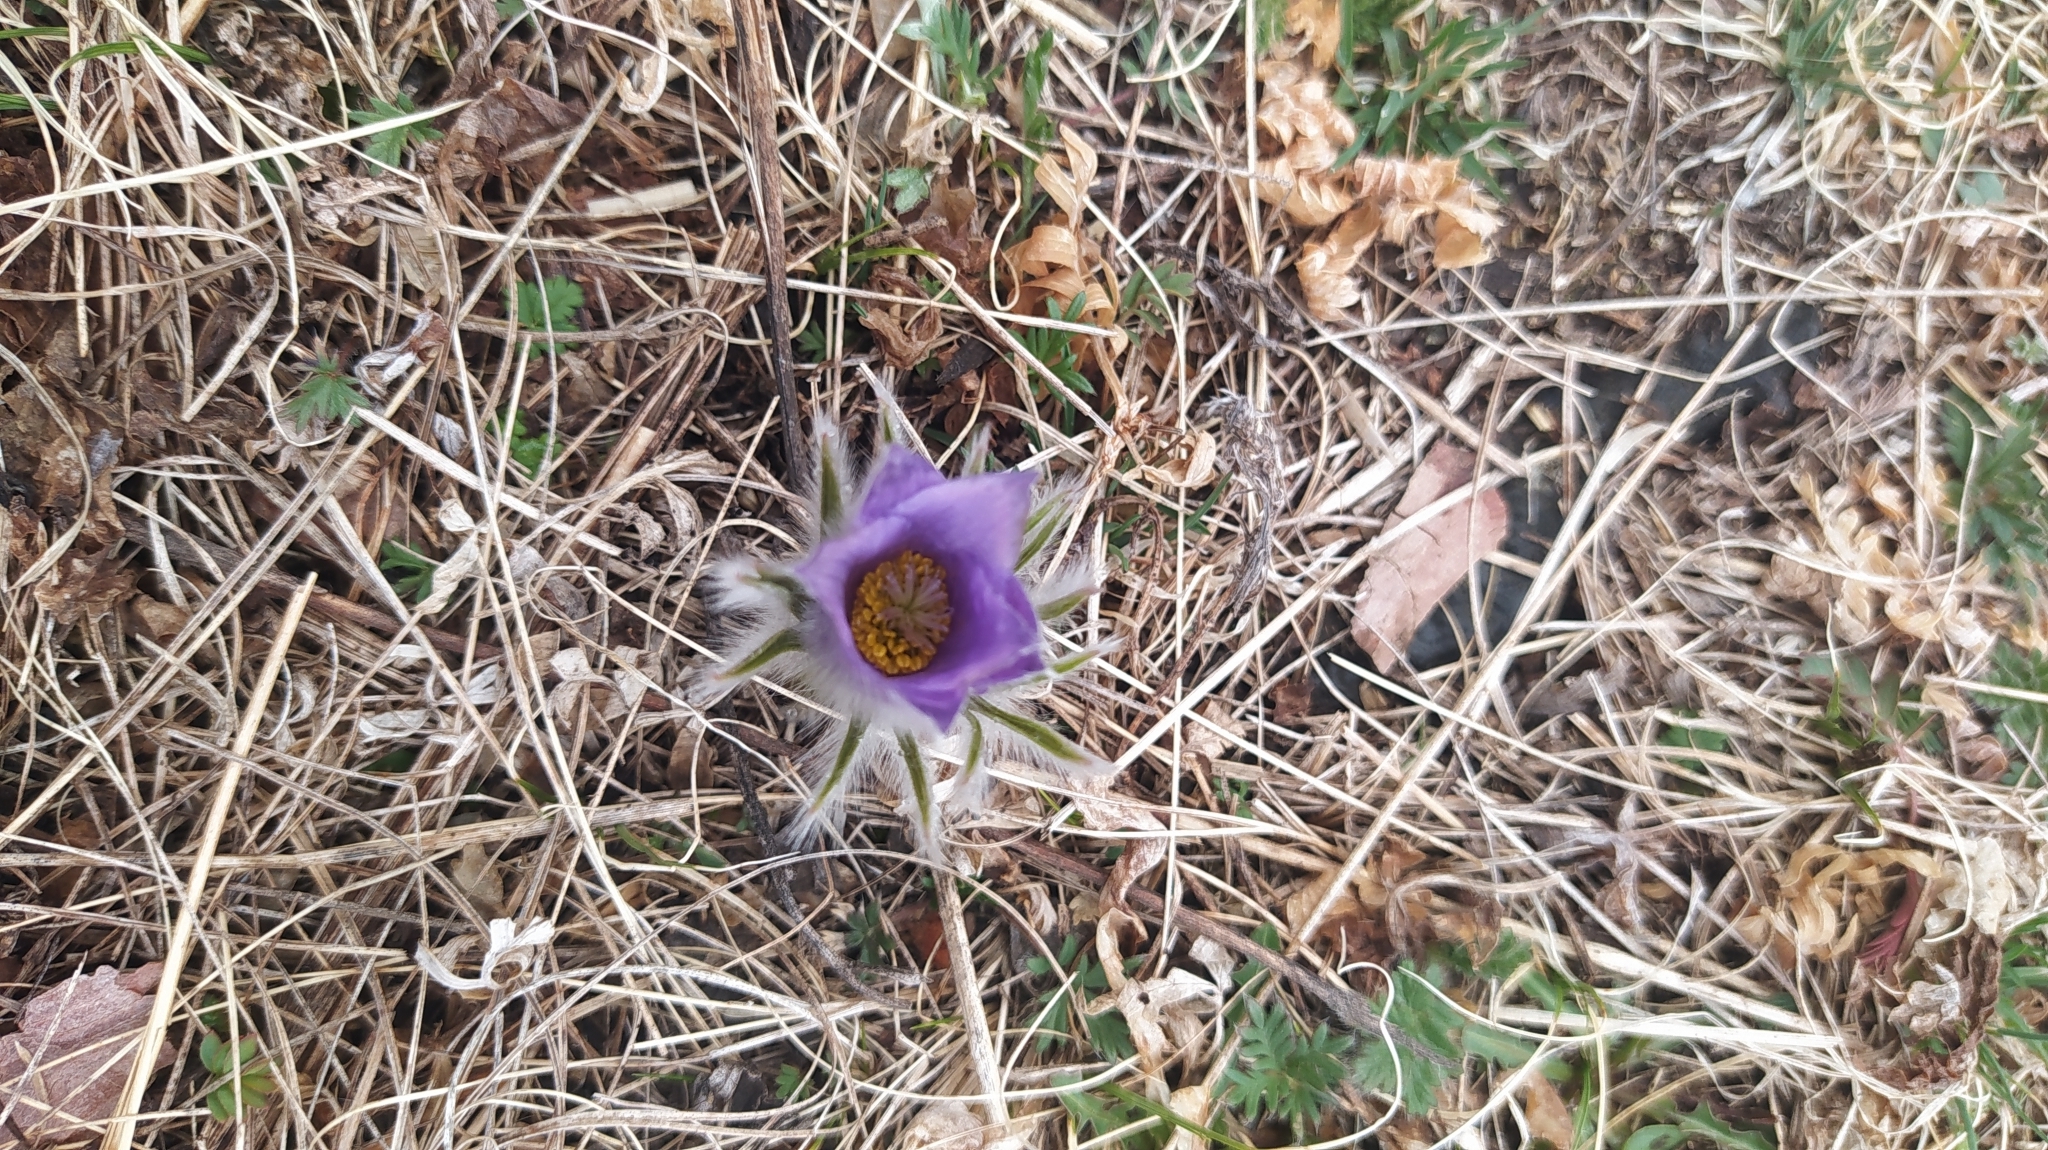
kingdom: Plantae
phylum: Tracheophyta
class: Magnoliopsida
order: Ranunculales
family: Ranunculaceae
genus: Pulsatilla
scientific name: Pulsatilla patens
